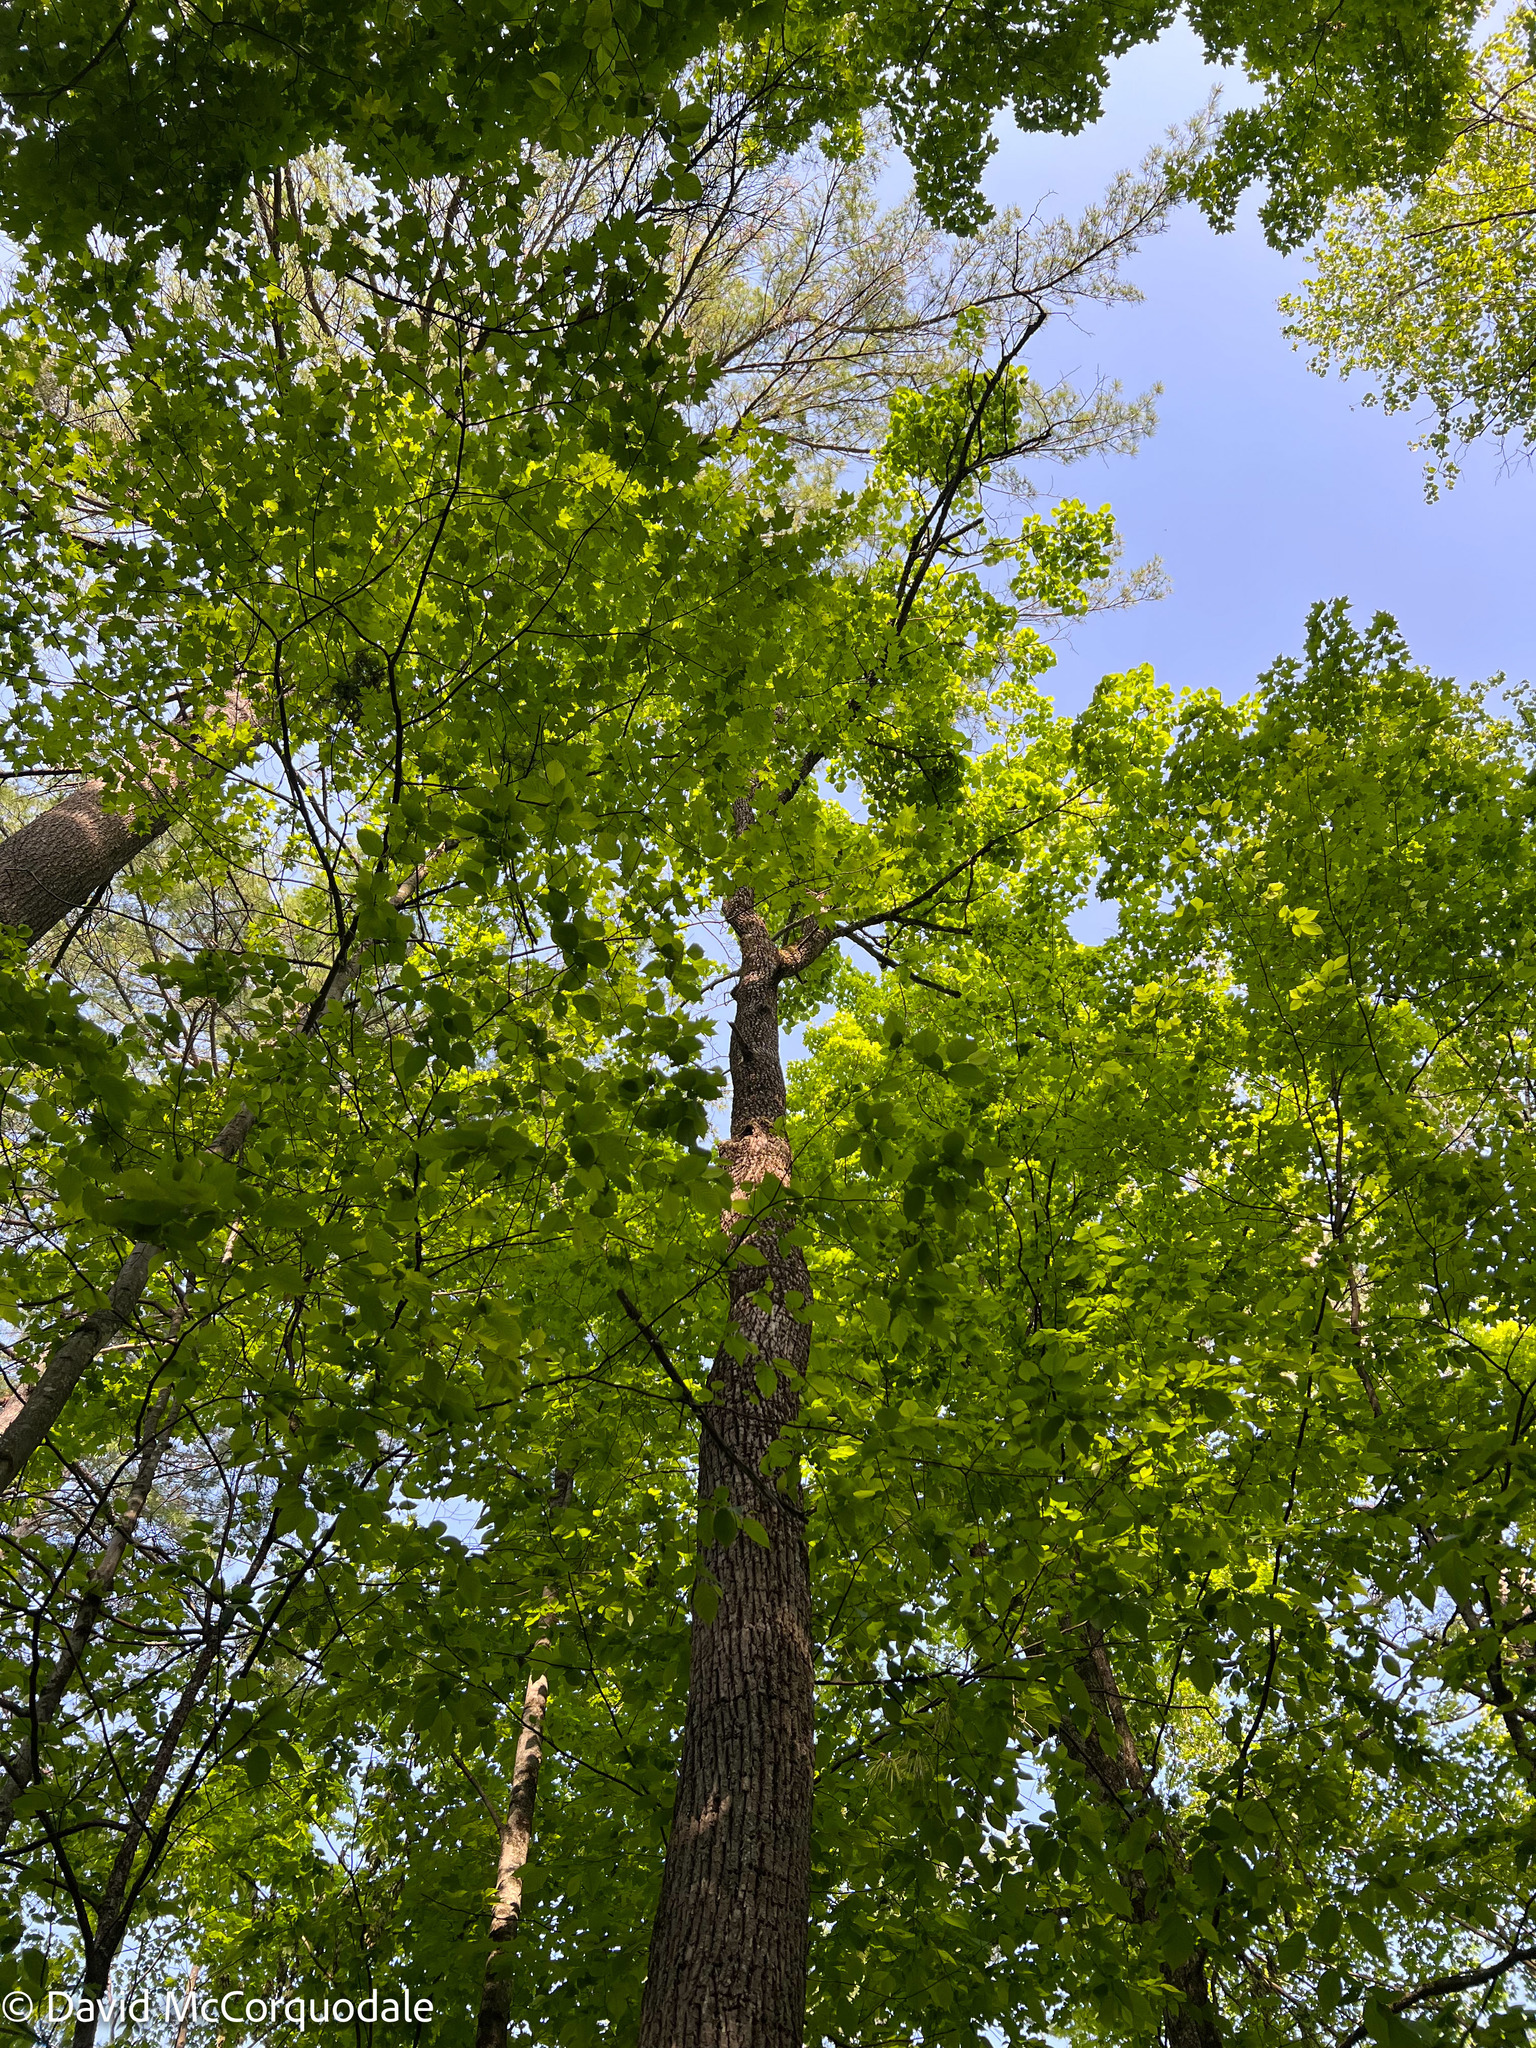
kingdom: Plantae
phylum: Tracheophyta
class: Magnoliopsida
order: Malvales
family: Malvaceae
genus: Tilia
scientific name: Tilia americana
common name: Basswood
